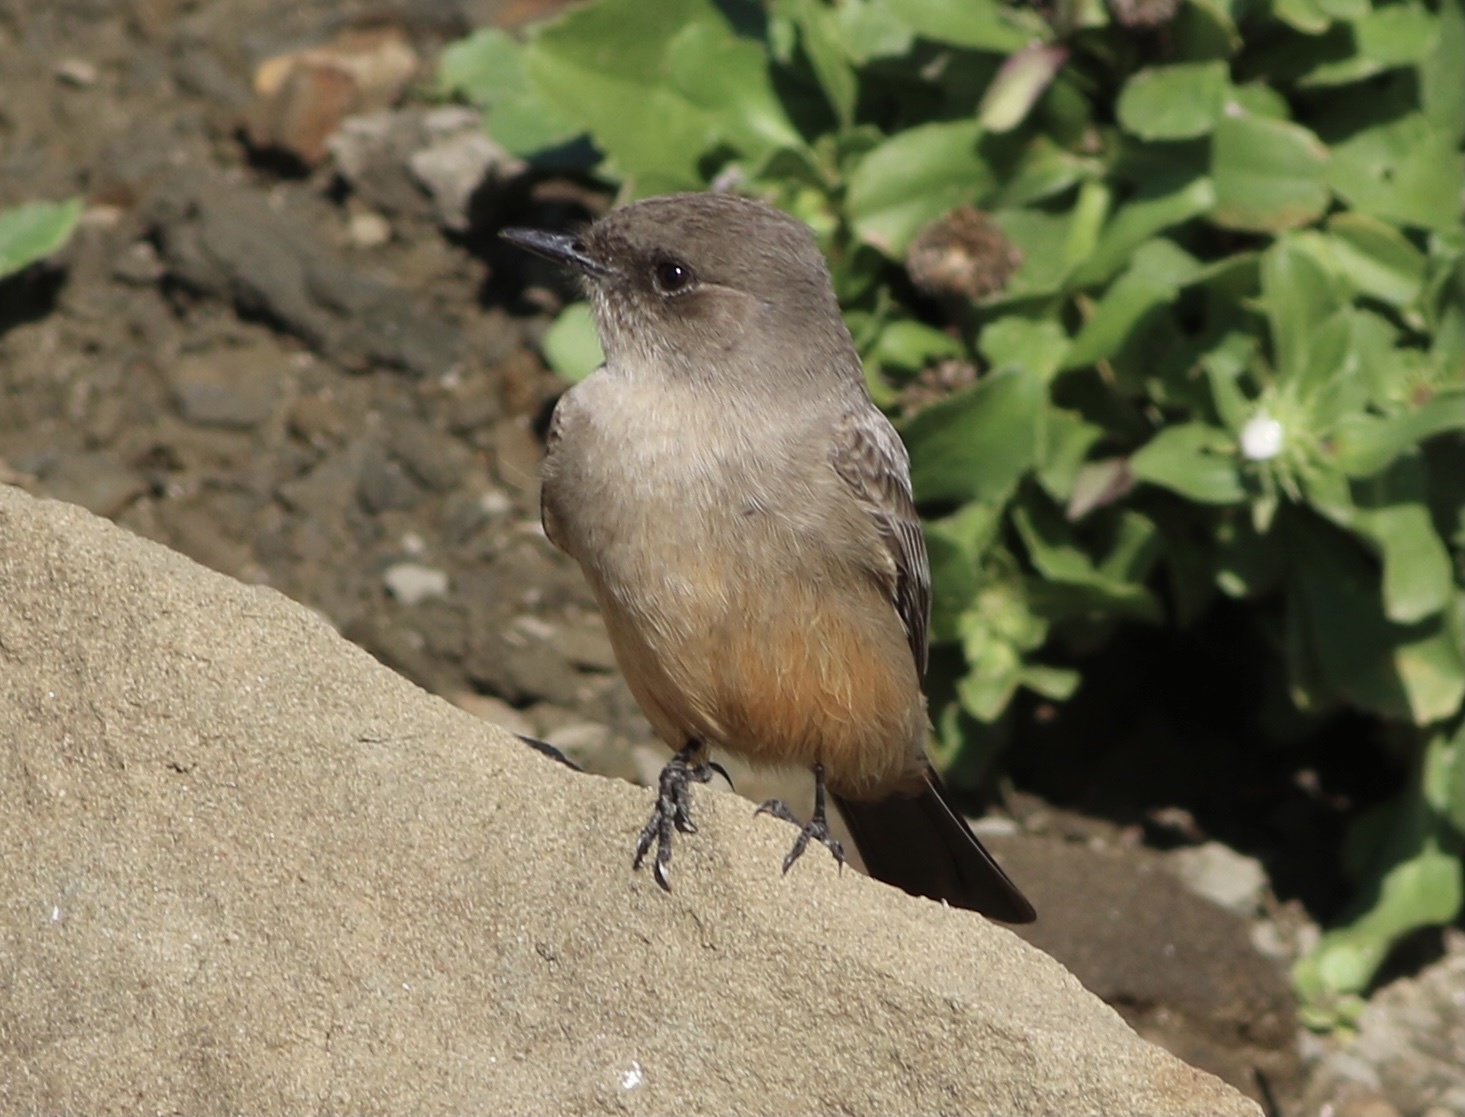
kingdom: Animalia
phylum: Chordata
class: Aves
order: Passeriformes
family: Tyrannidae
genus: Sayornis
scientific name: Sayornis saya
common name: Say's phoebe
